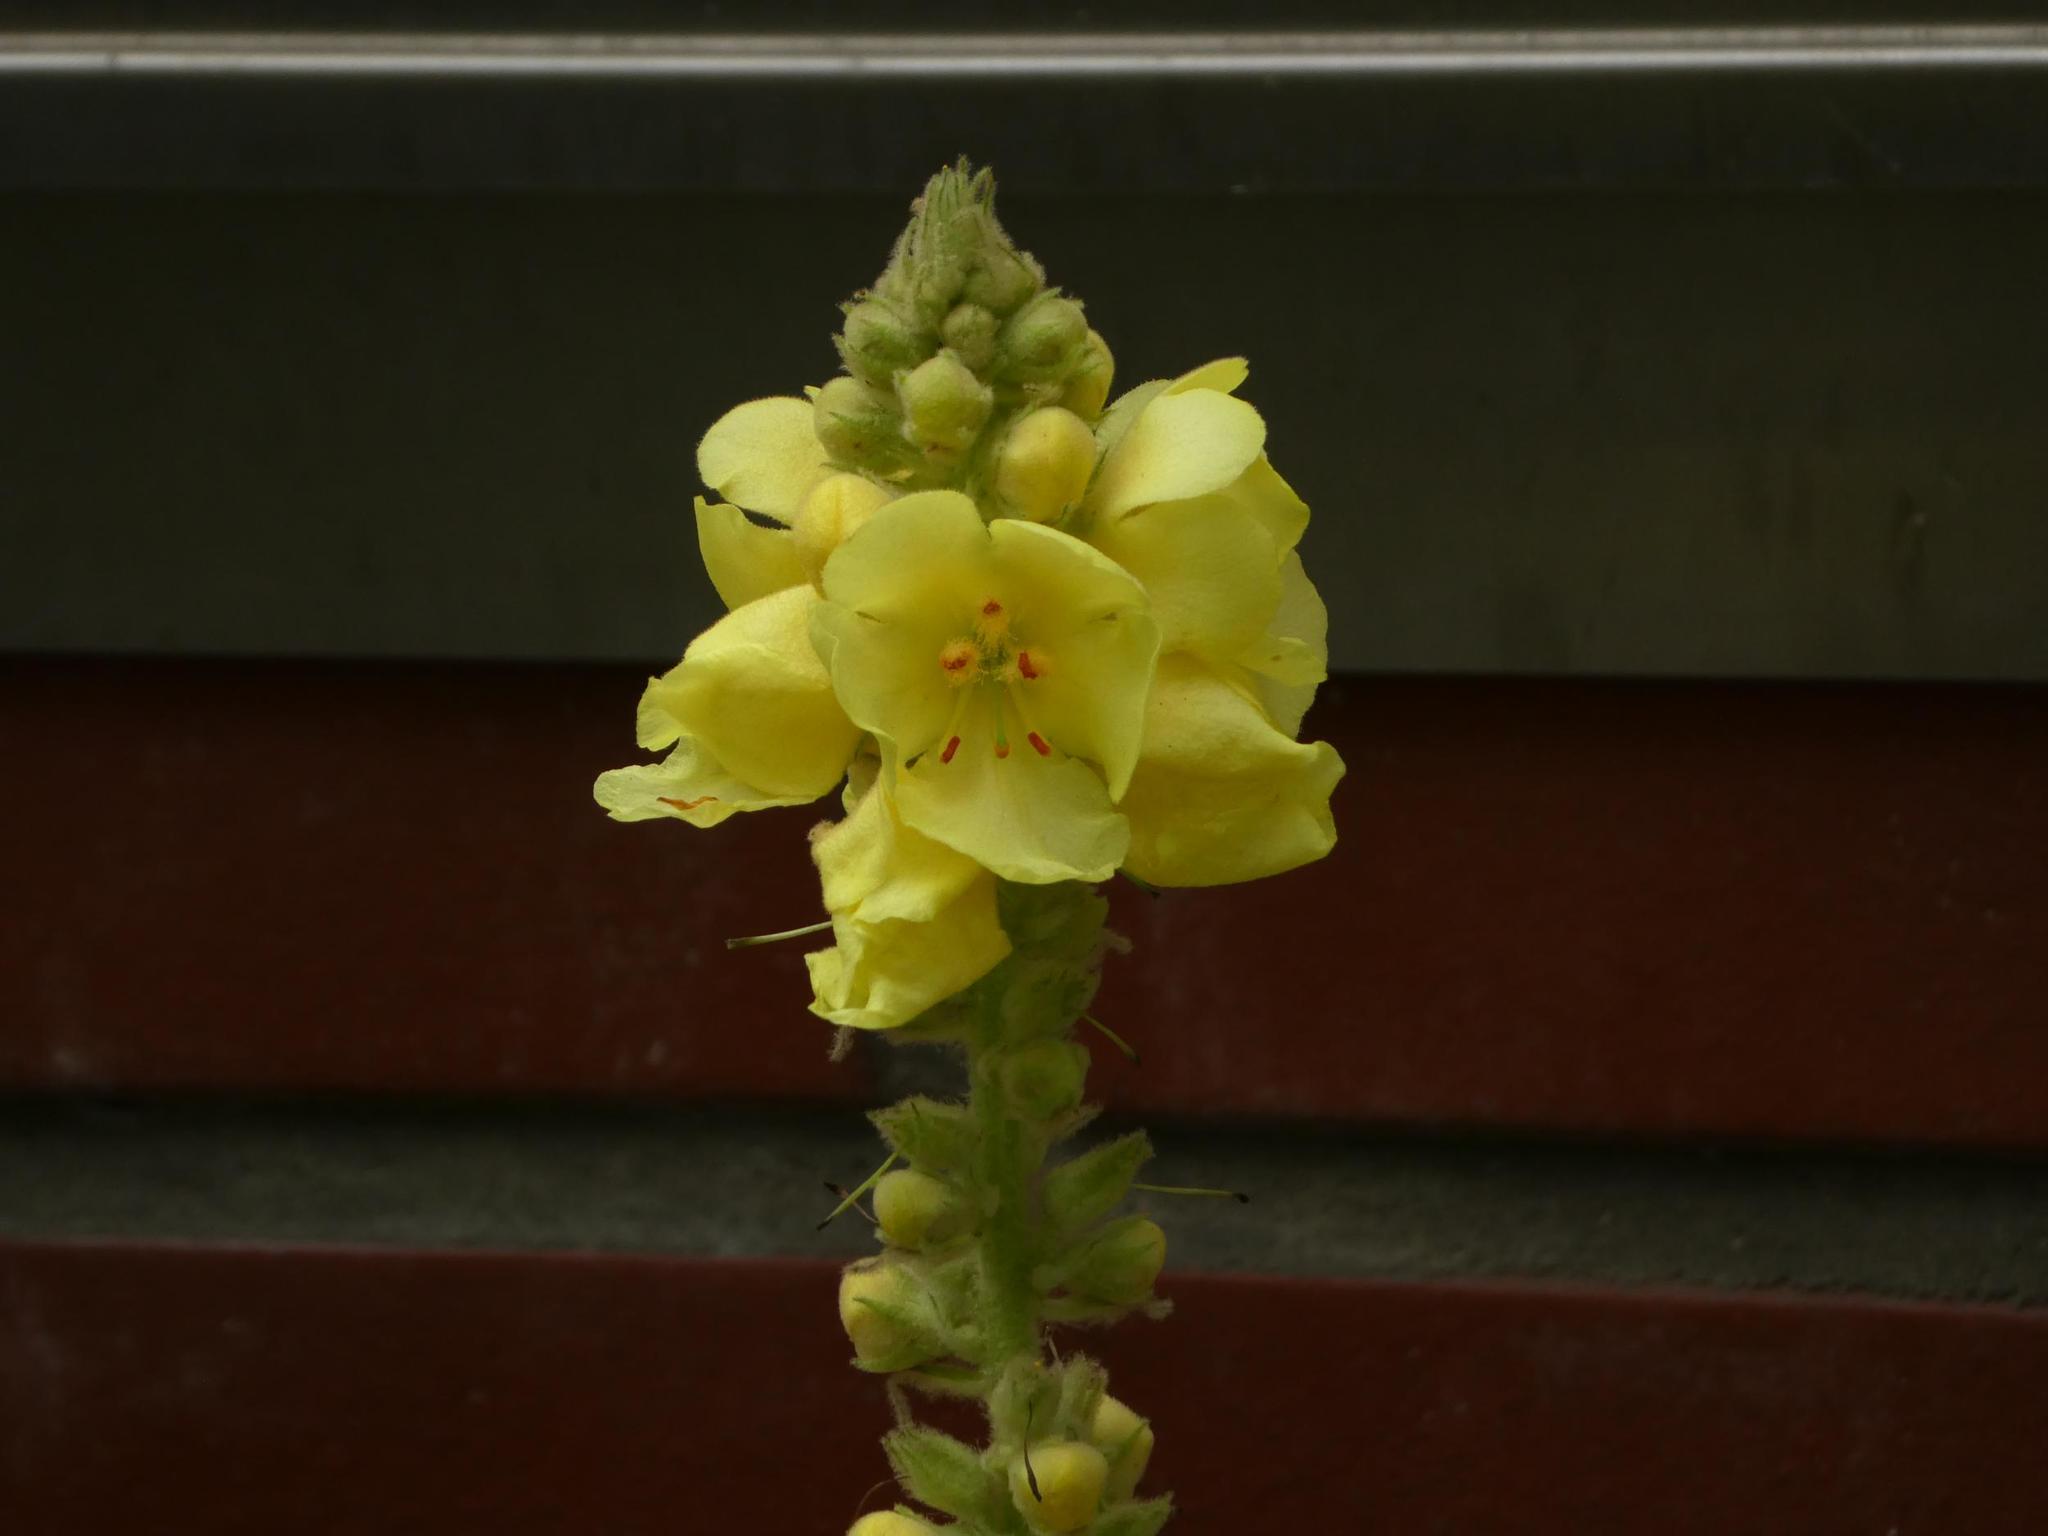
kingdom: Plantae
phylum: Tracheophyta
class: Magnoliopsida
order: Lamiales
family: Scrophulariaceae
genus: Verbascum
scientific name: Verbascum densiflorum
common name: Dense-flowered mullein
